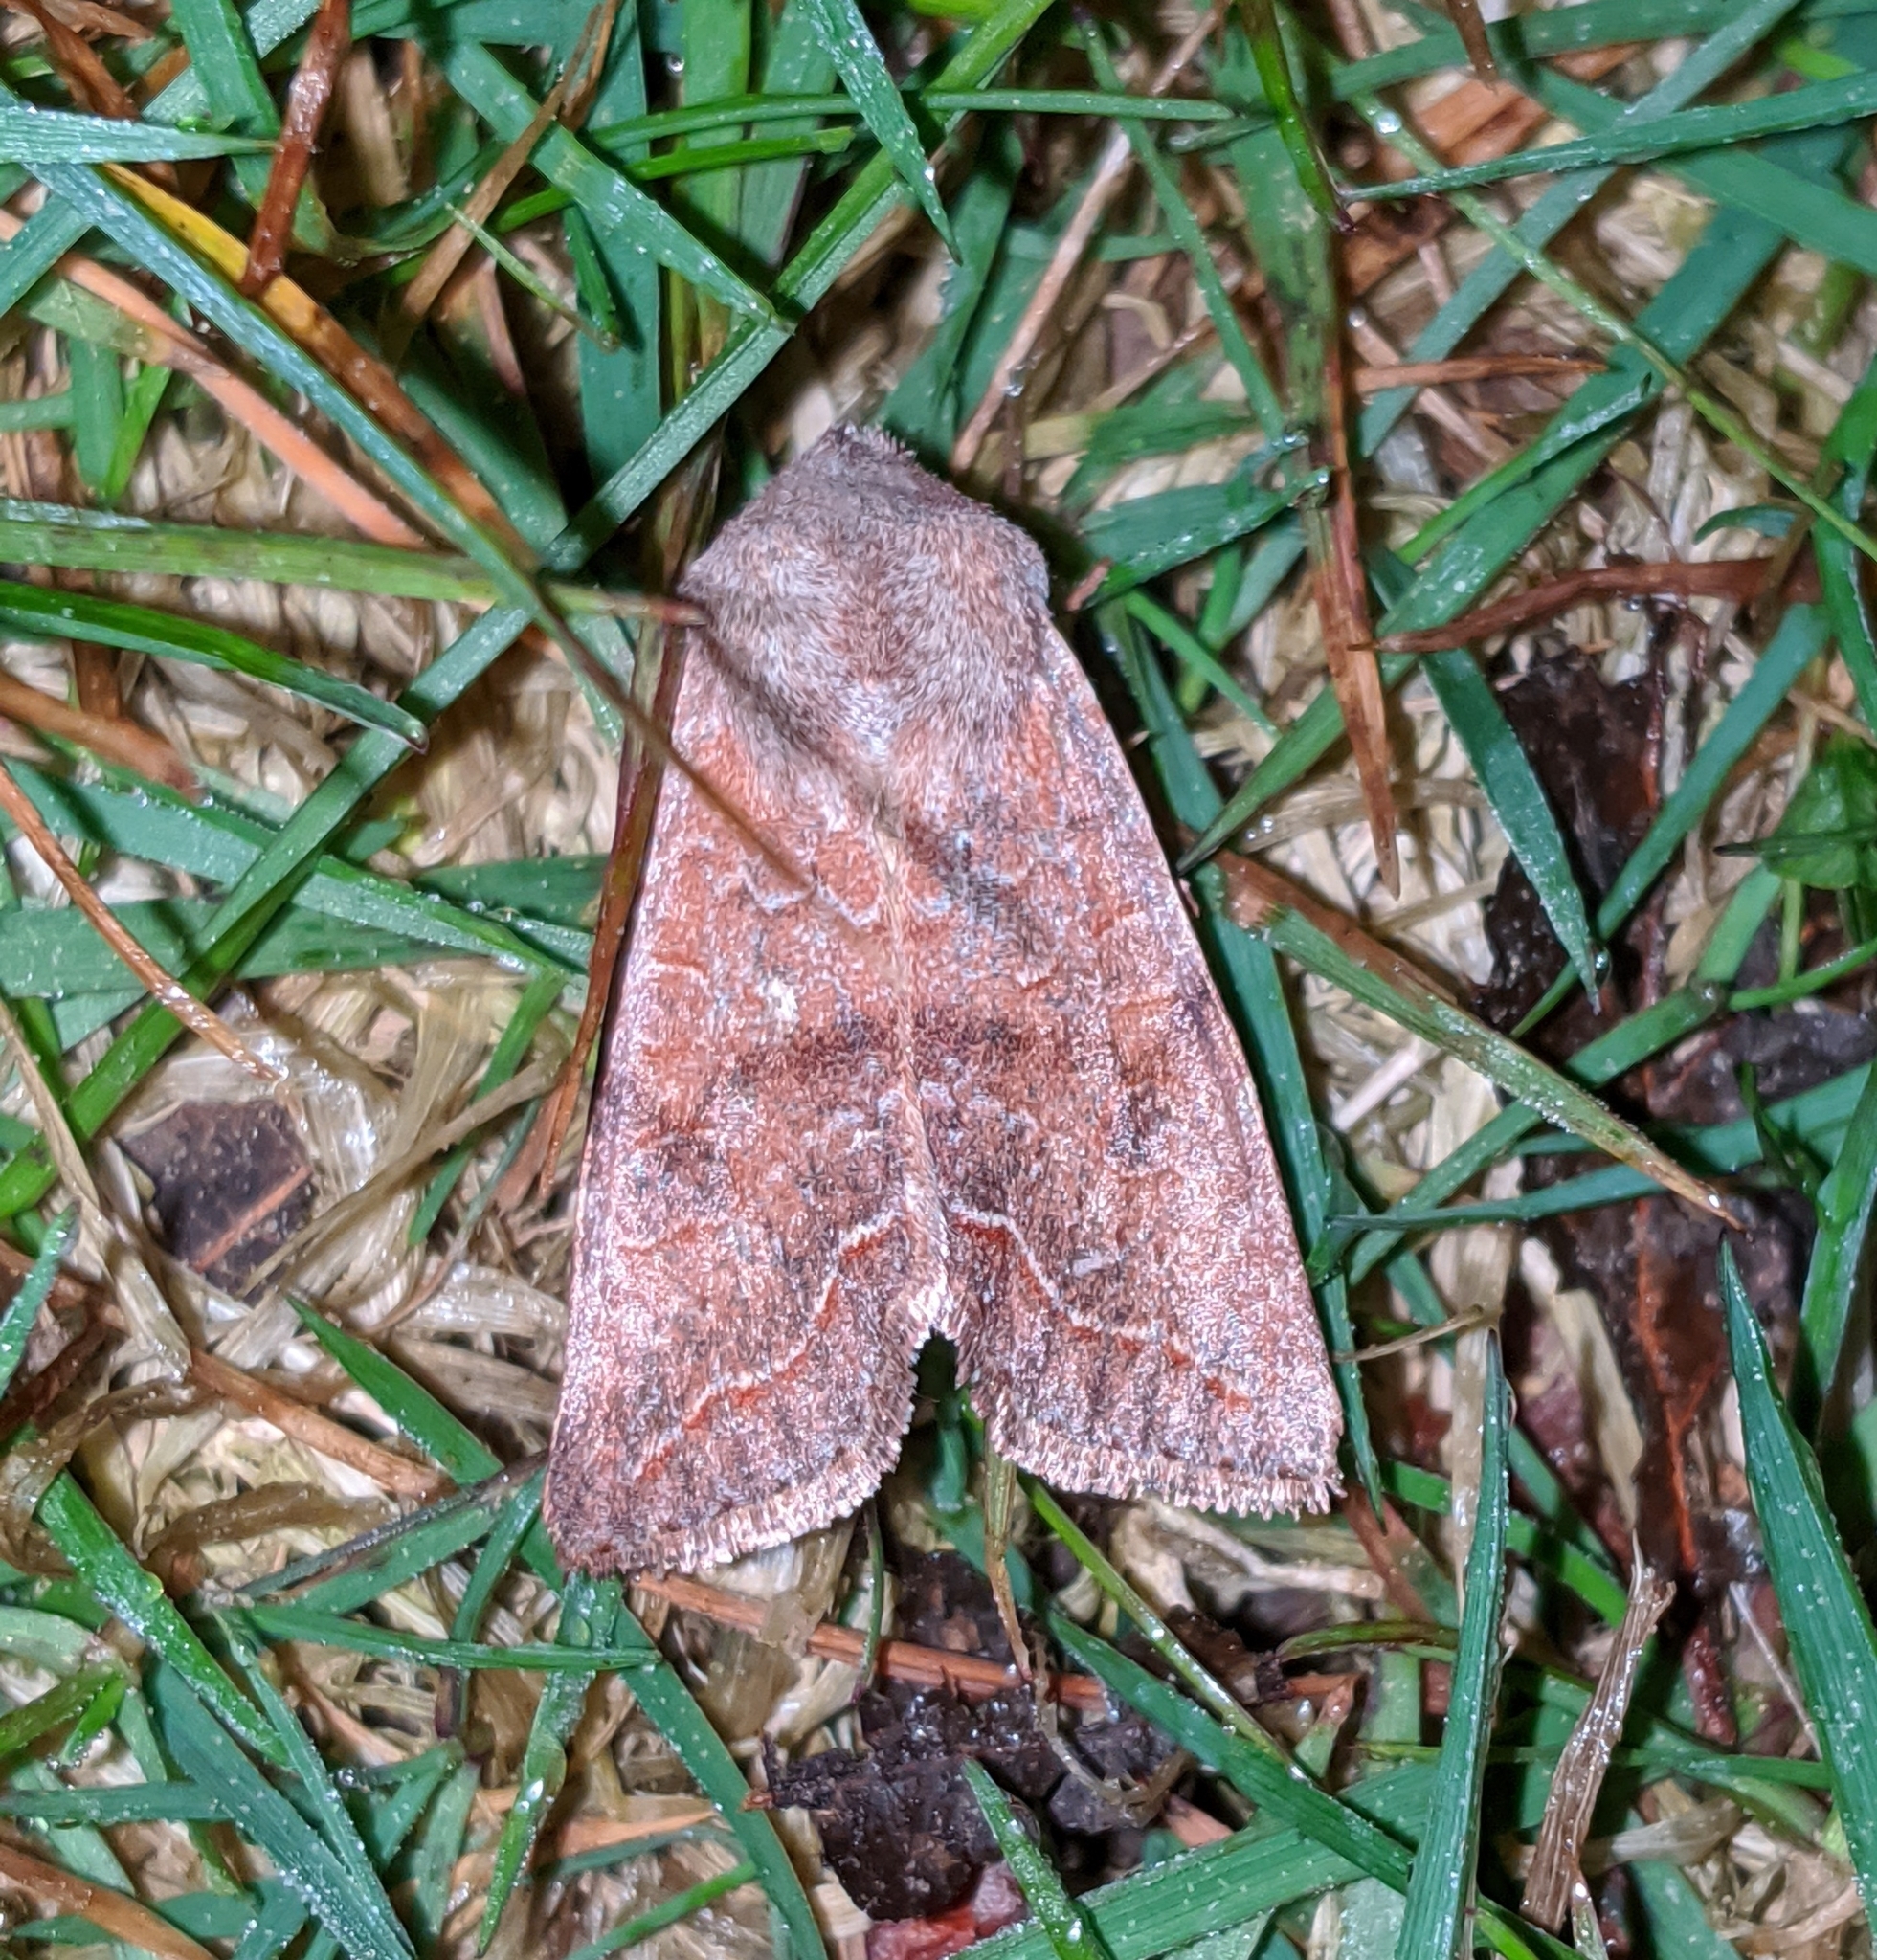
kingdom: Animalia
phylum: Arthropoda
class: Insecta
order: Lepidoptera
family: Noctuidae
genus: Orthosia
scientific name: Orthosia revicta
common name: Rusty whitesided caterpillar
